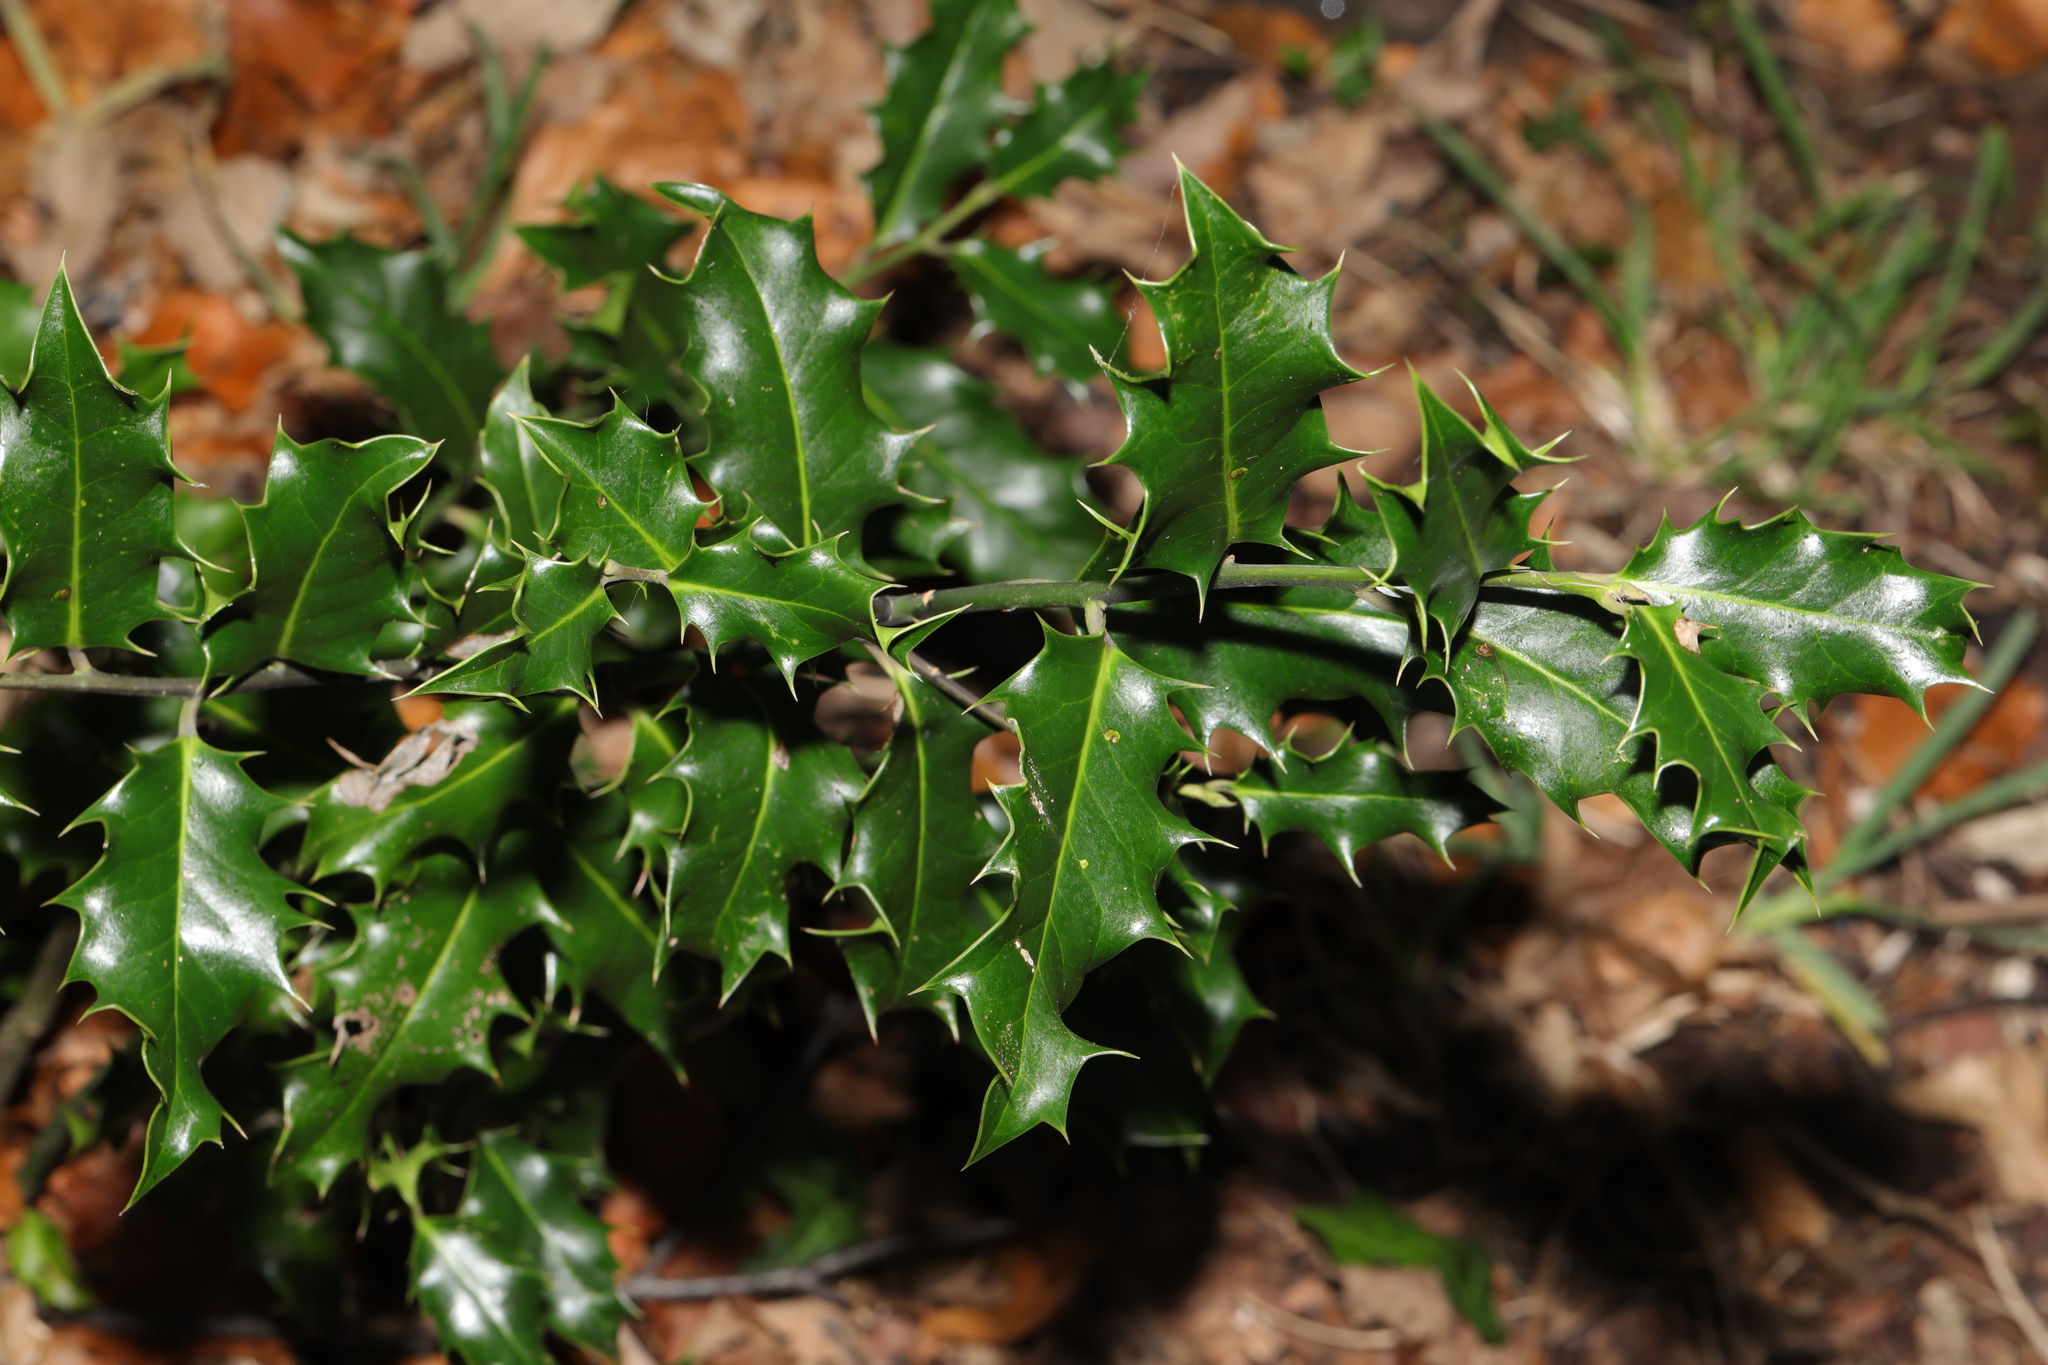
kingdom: Plantae
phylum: Tracheophyta
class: Magnoliopsida
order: Aquifoliales
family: Aquifoliaceae
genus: Ilex
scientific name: Ilex aquifolium
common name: English holly
